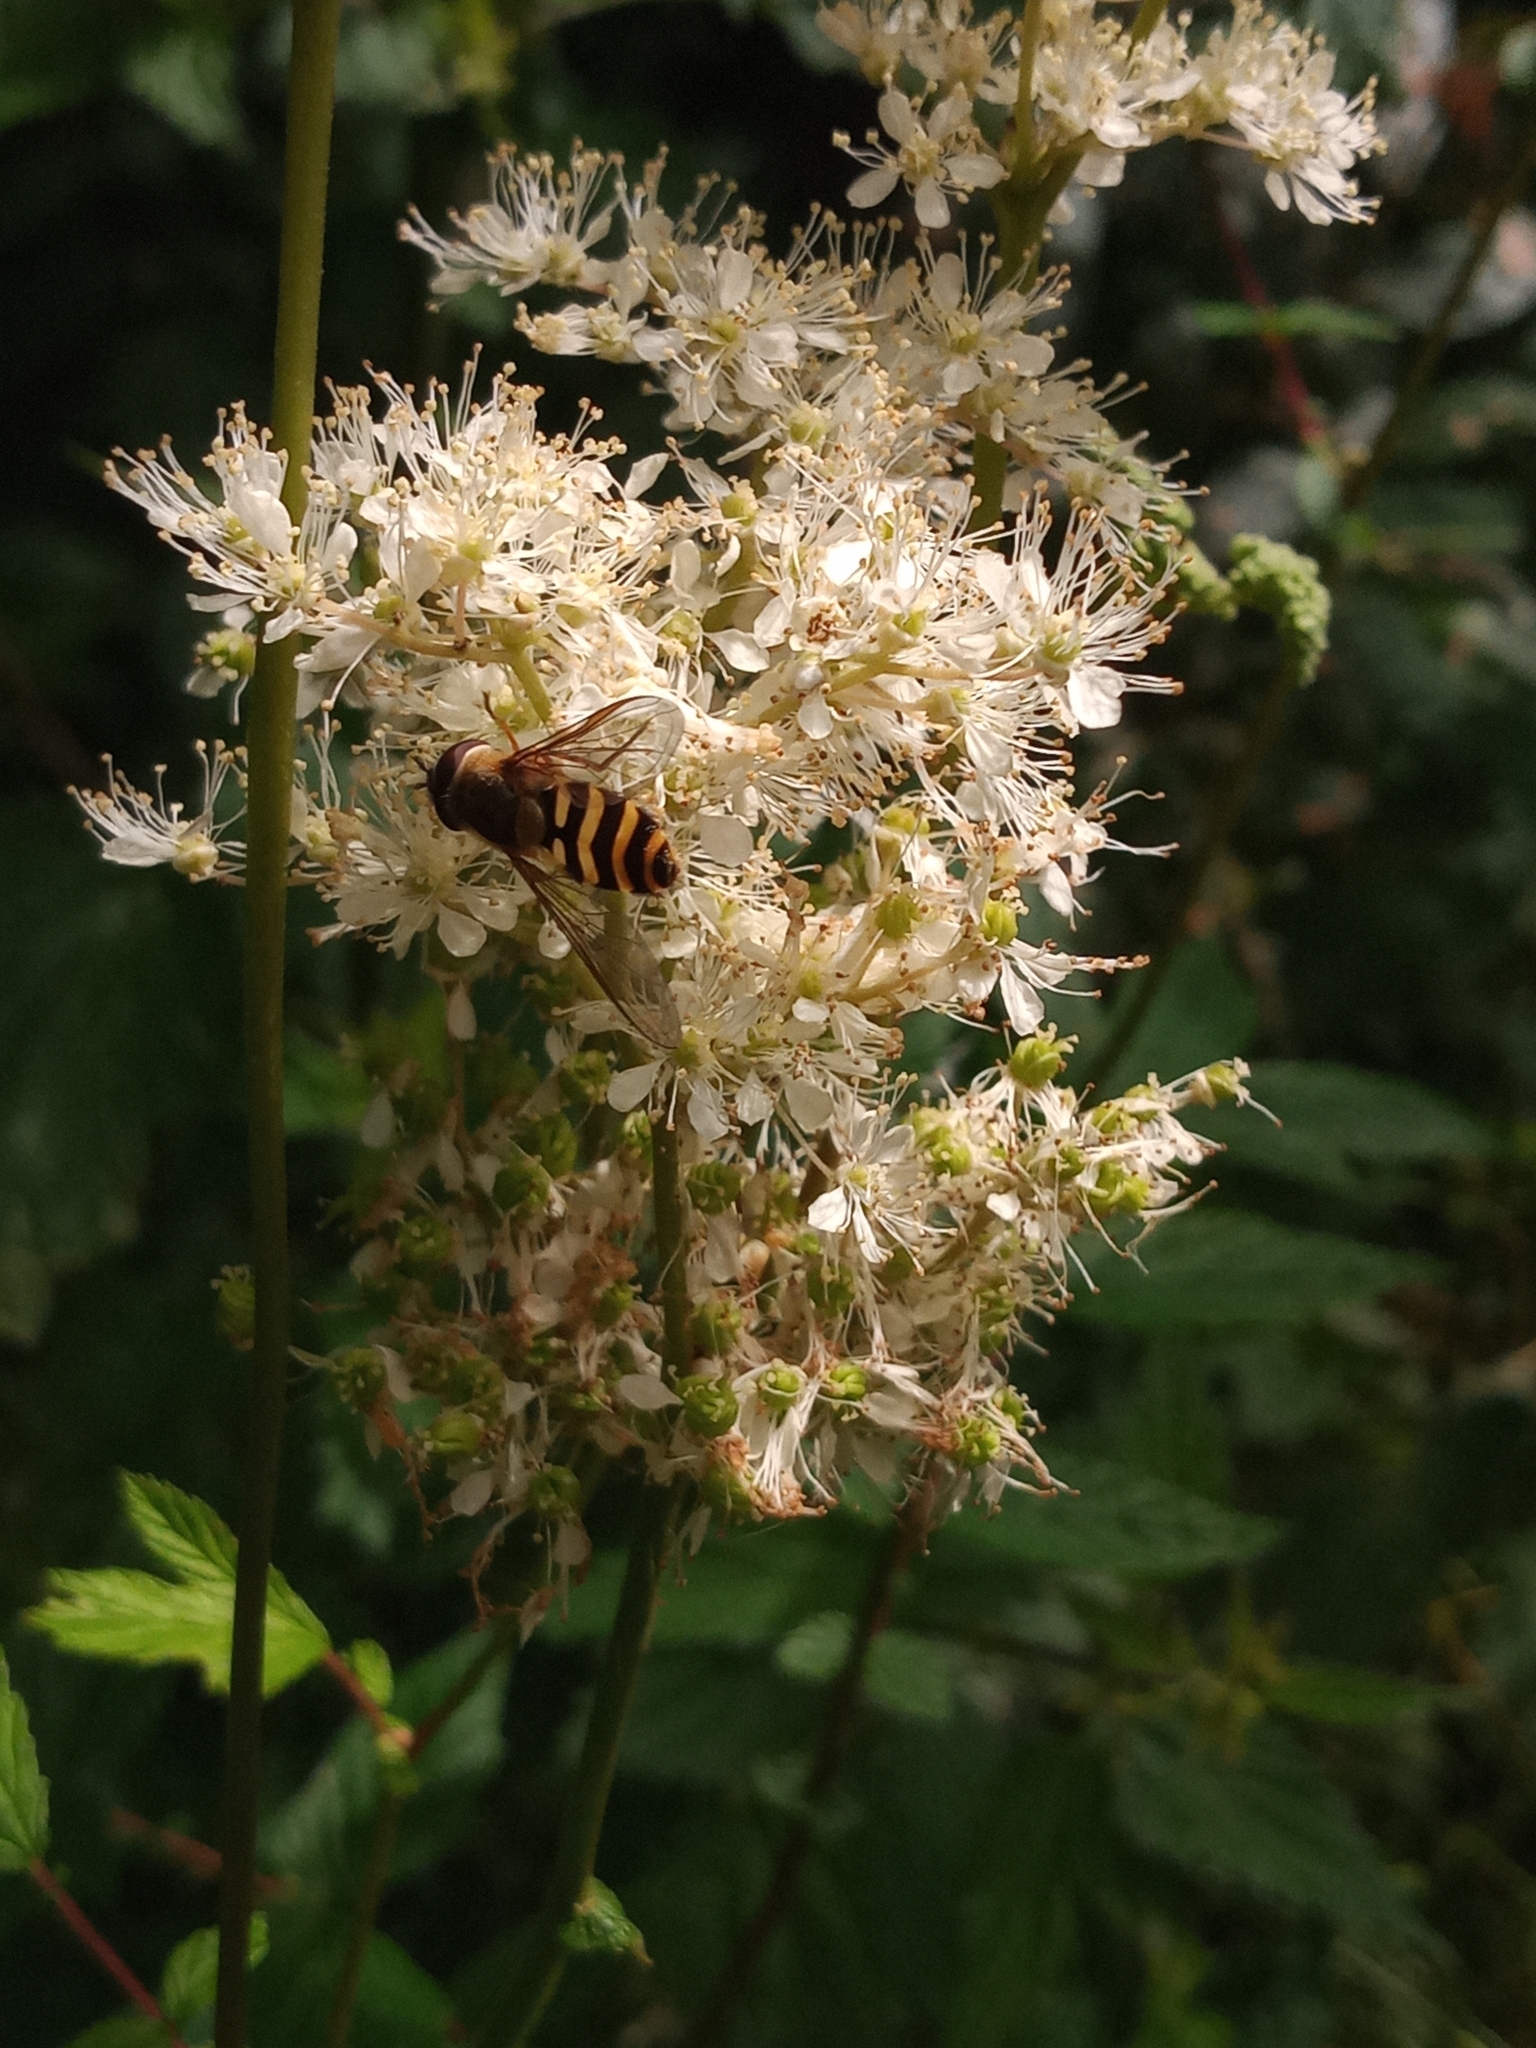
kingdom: Animalia
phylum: Arthropoda
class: Insecta
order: Diptera
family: Syrphidae
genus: Syrphus
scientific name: Syrphus
